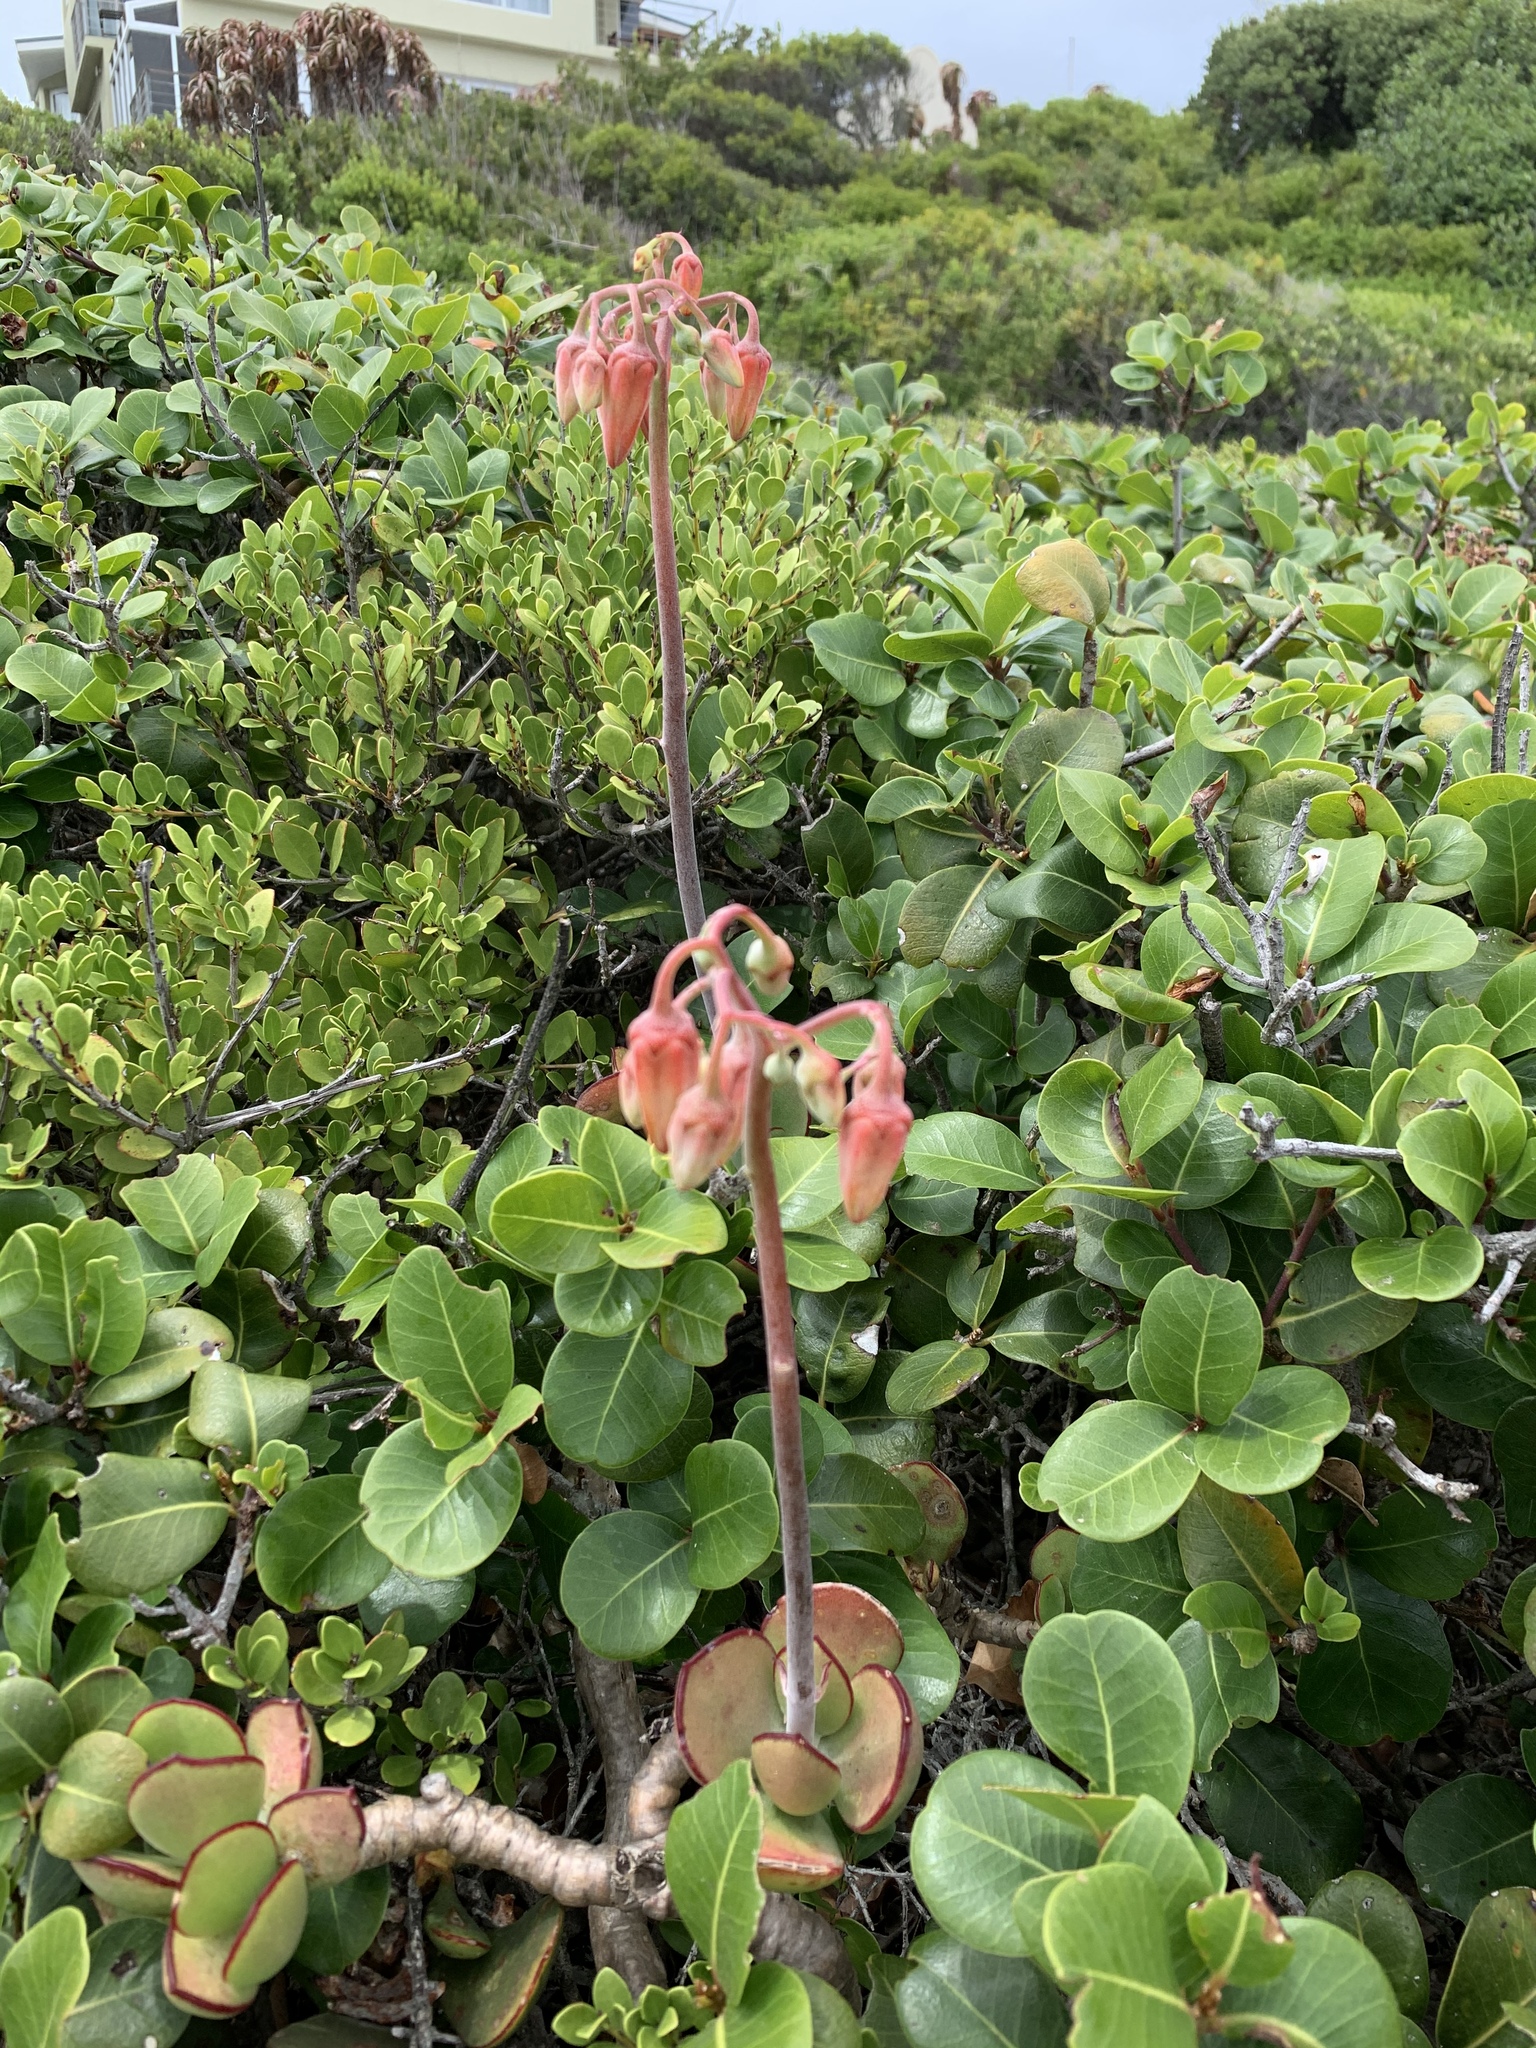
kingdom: Plantae
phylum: Tracheophyta
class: Magnoliopsida
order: Saxifragales
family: Crassulaceae
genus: Cotyledon
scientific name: Cotyledon orbiculata
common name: Pig's ear
